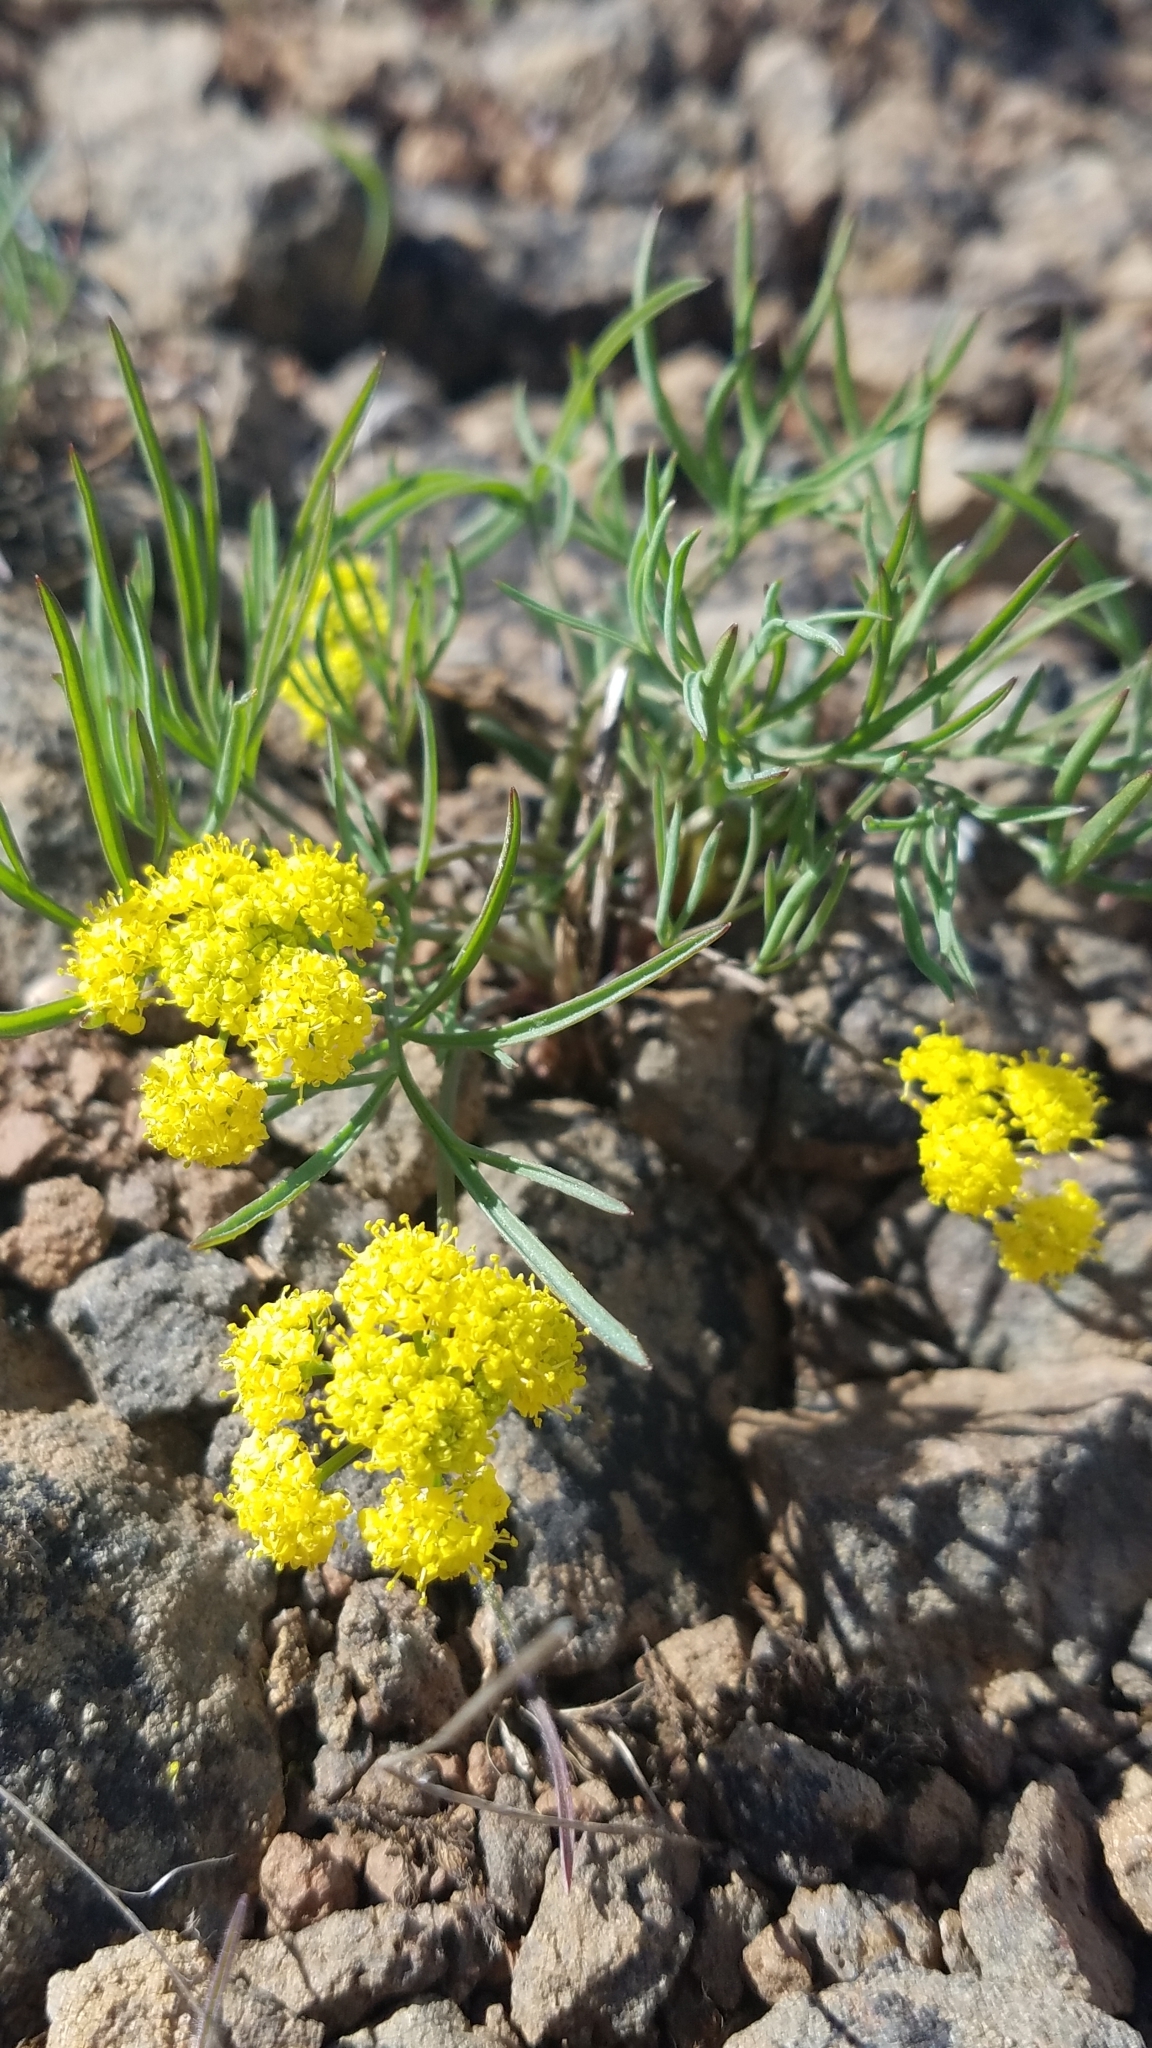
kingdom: Plantae
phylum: Tracheophyta
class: Magnoliopsida
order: Apiales
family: Apiaceae
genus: Lomatium
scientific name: Lomatium farinosum
